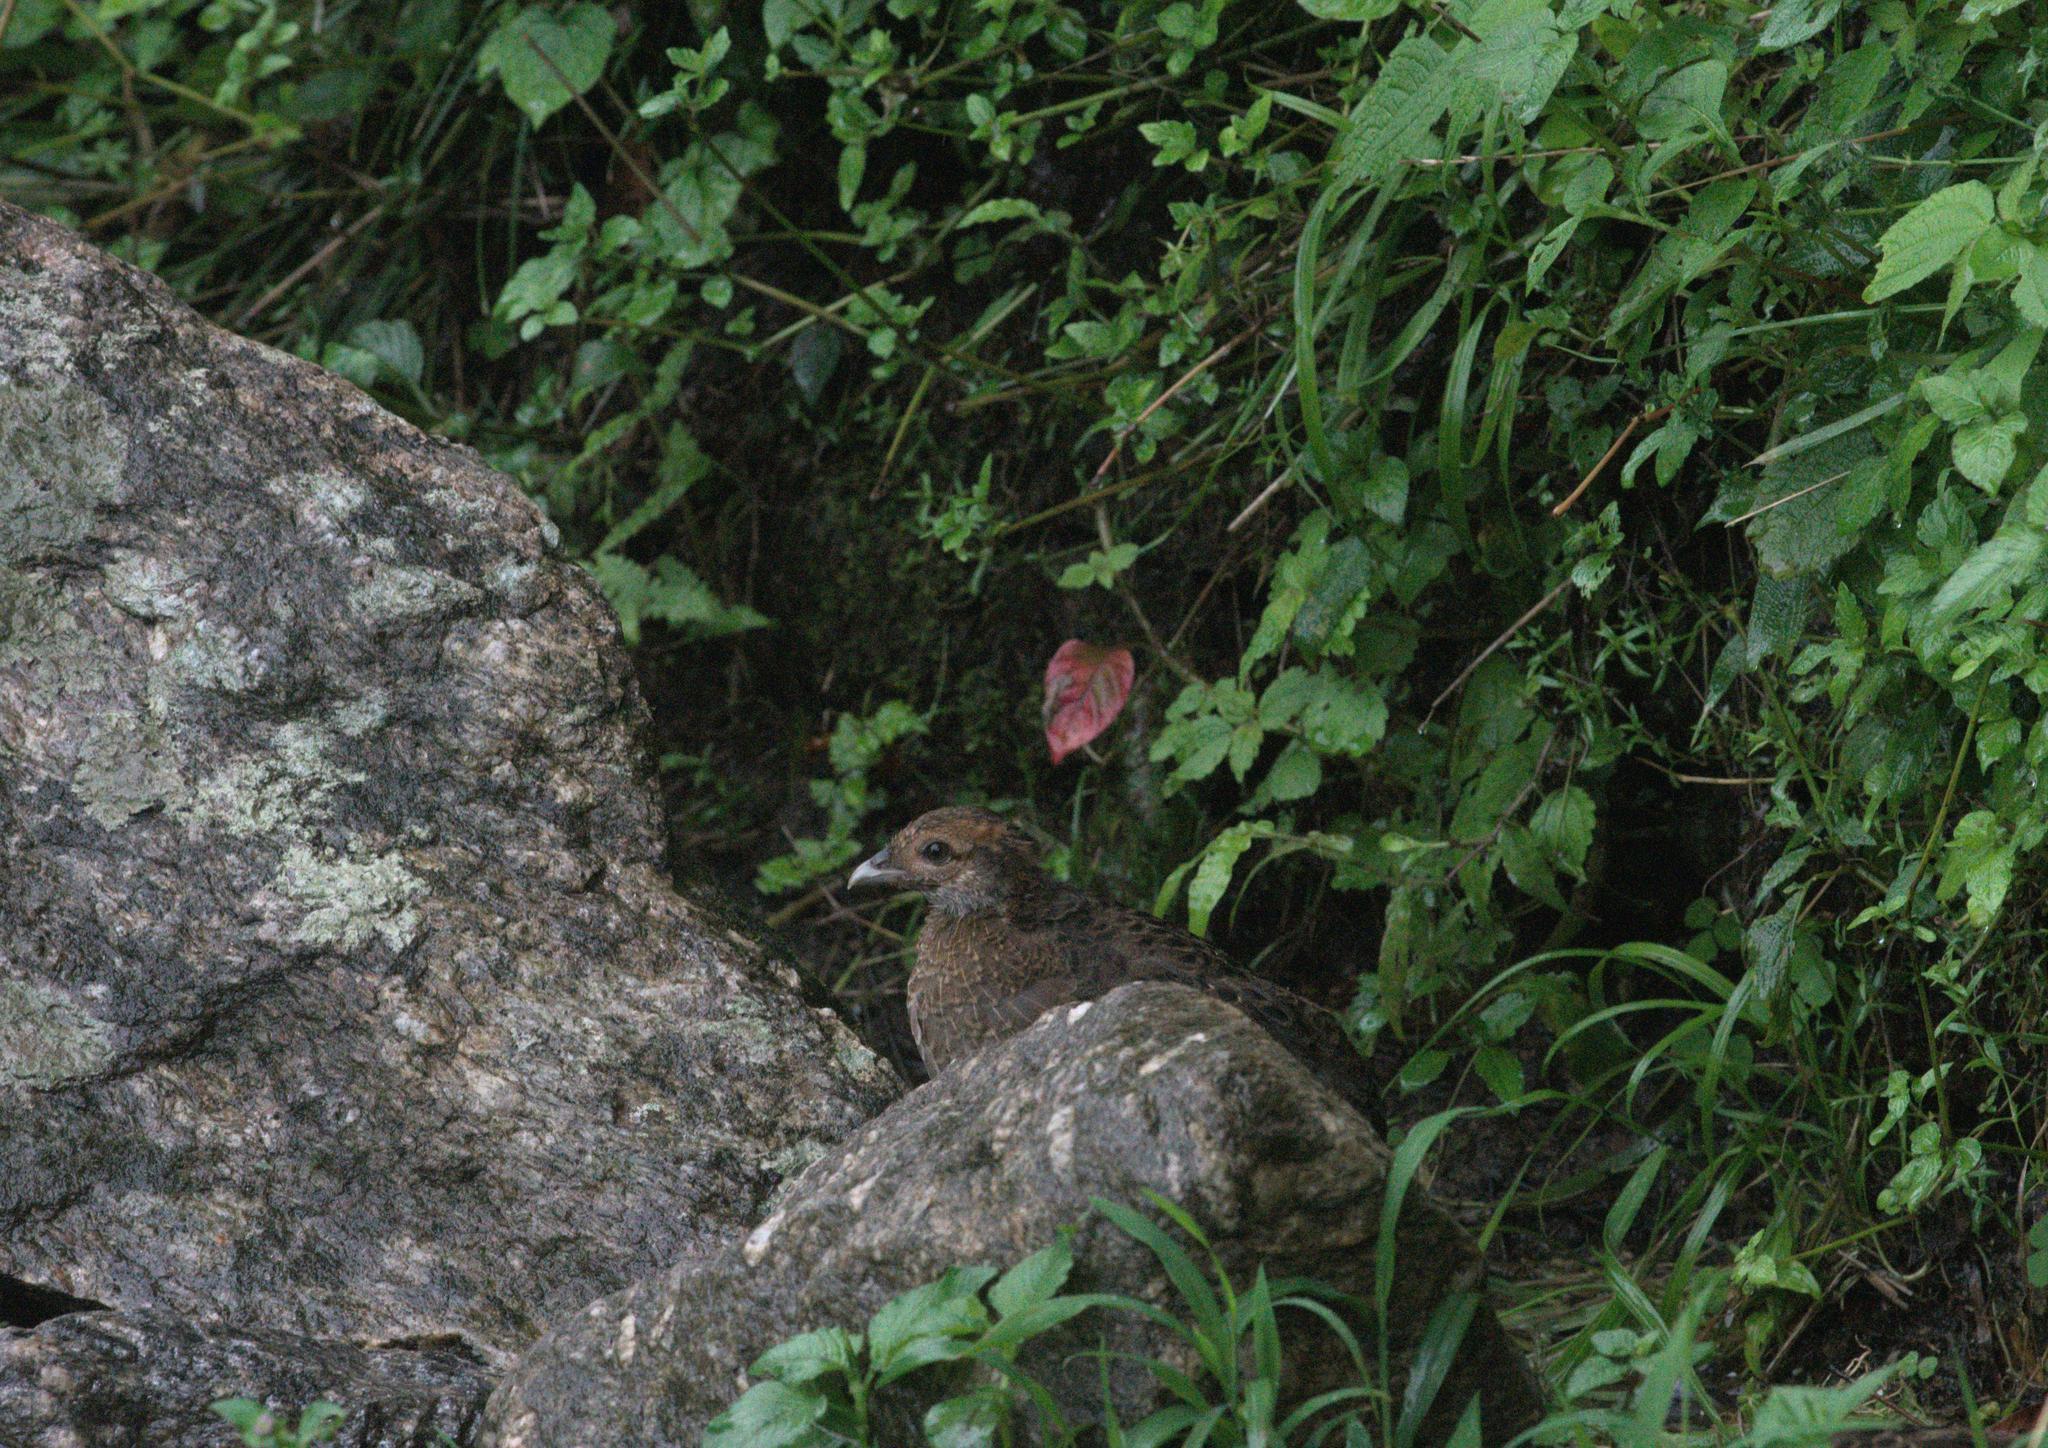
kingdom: Animalia
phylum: Chordata
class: Aves
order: Galliformes
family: Phasianidae
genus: Lophura
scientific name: Lophura leucomelanos
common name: Kalij pheasant
